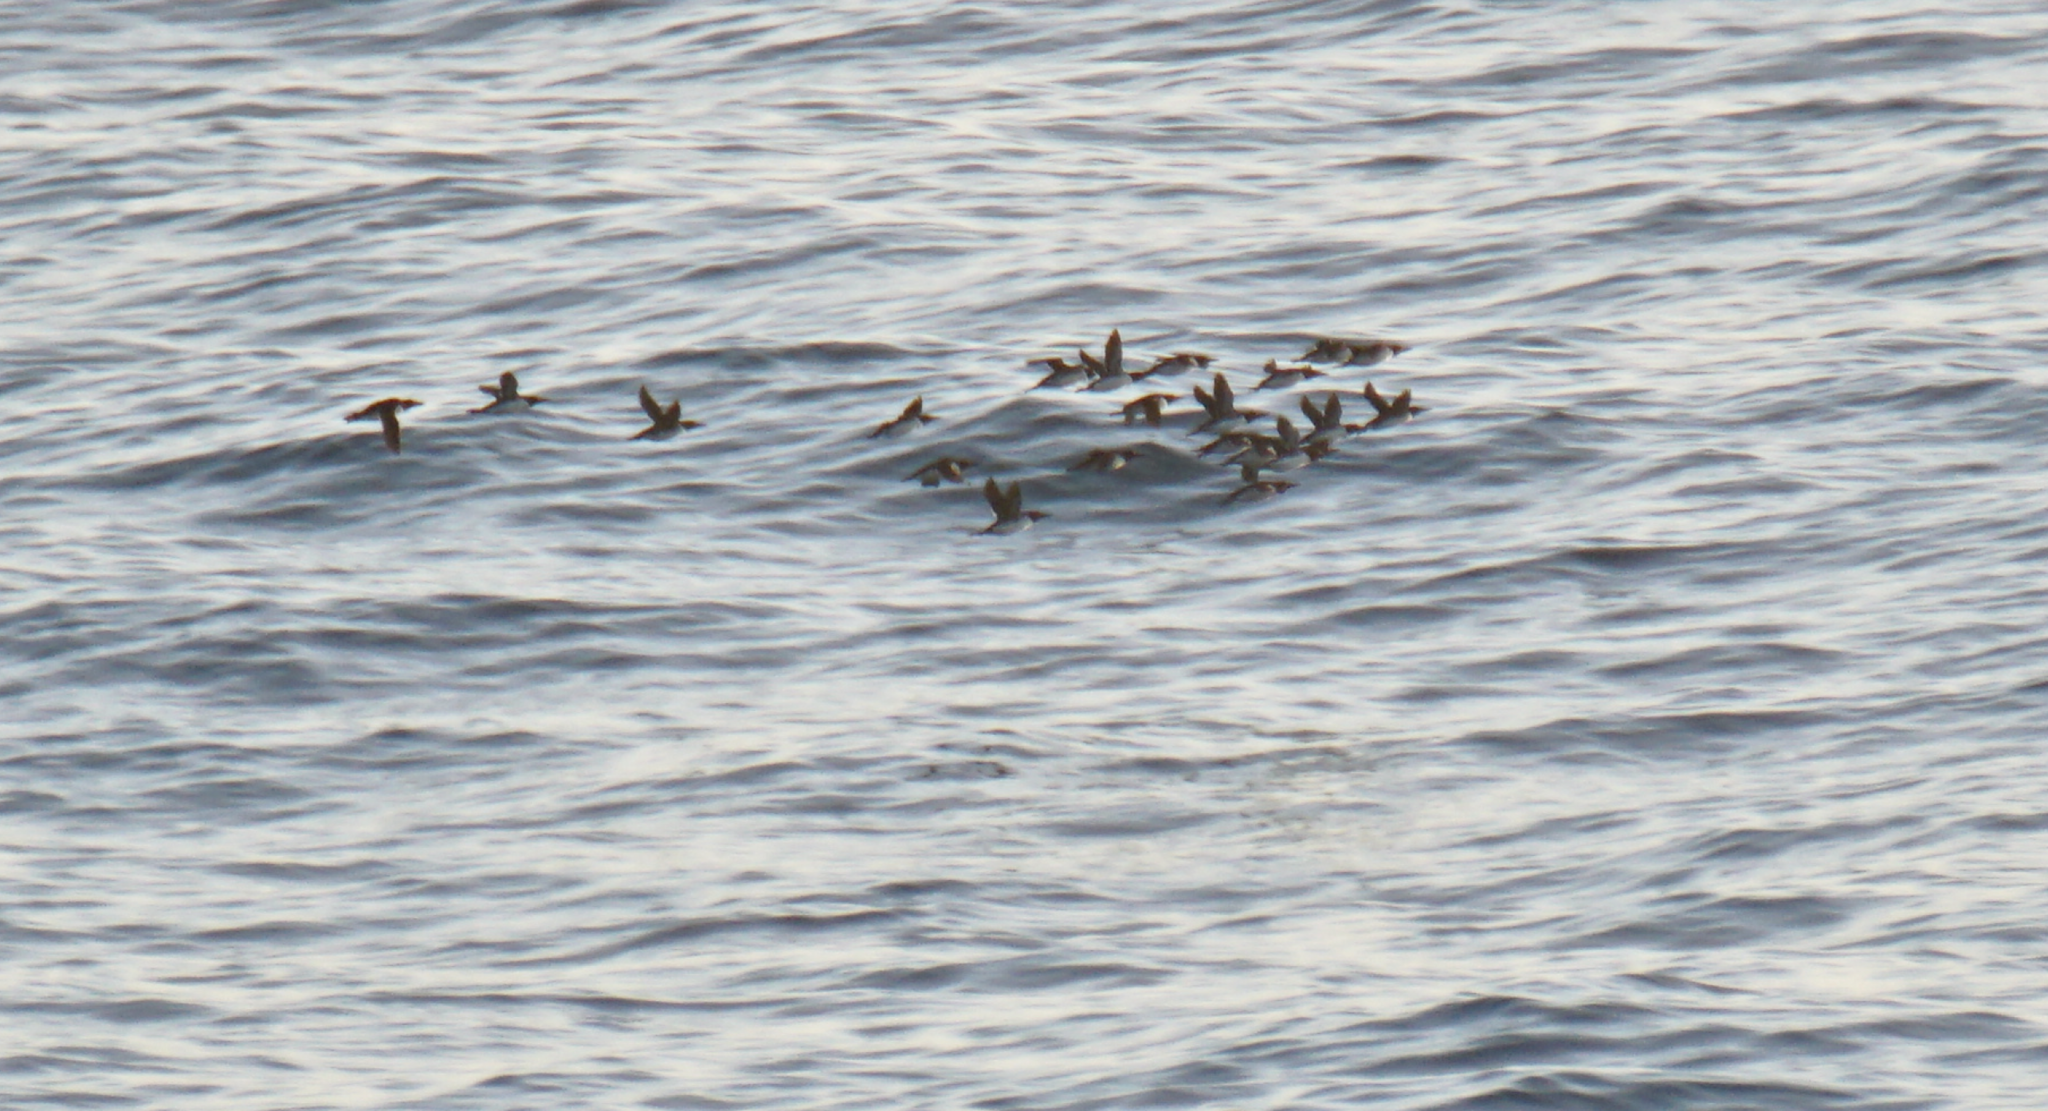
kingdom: Animalia
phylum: Chordata
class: Aves
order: Charadriiformes
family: Alcidae
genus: Uria
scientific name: Uria aalge
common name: Common murre
